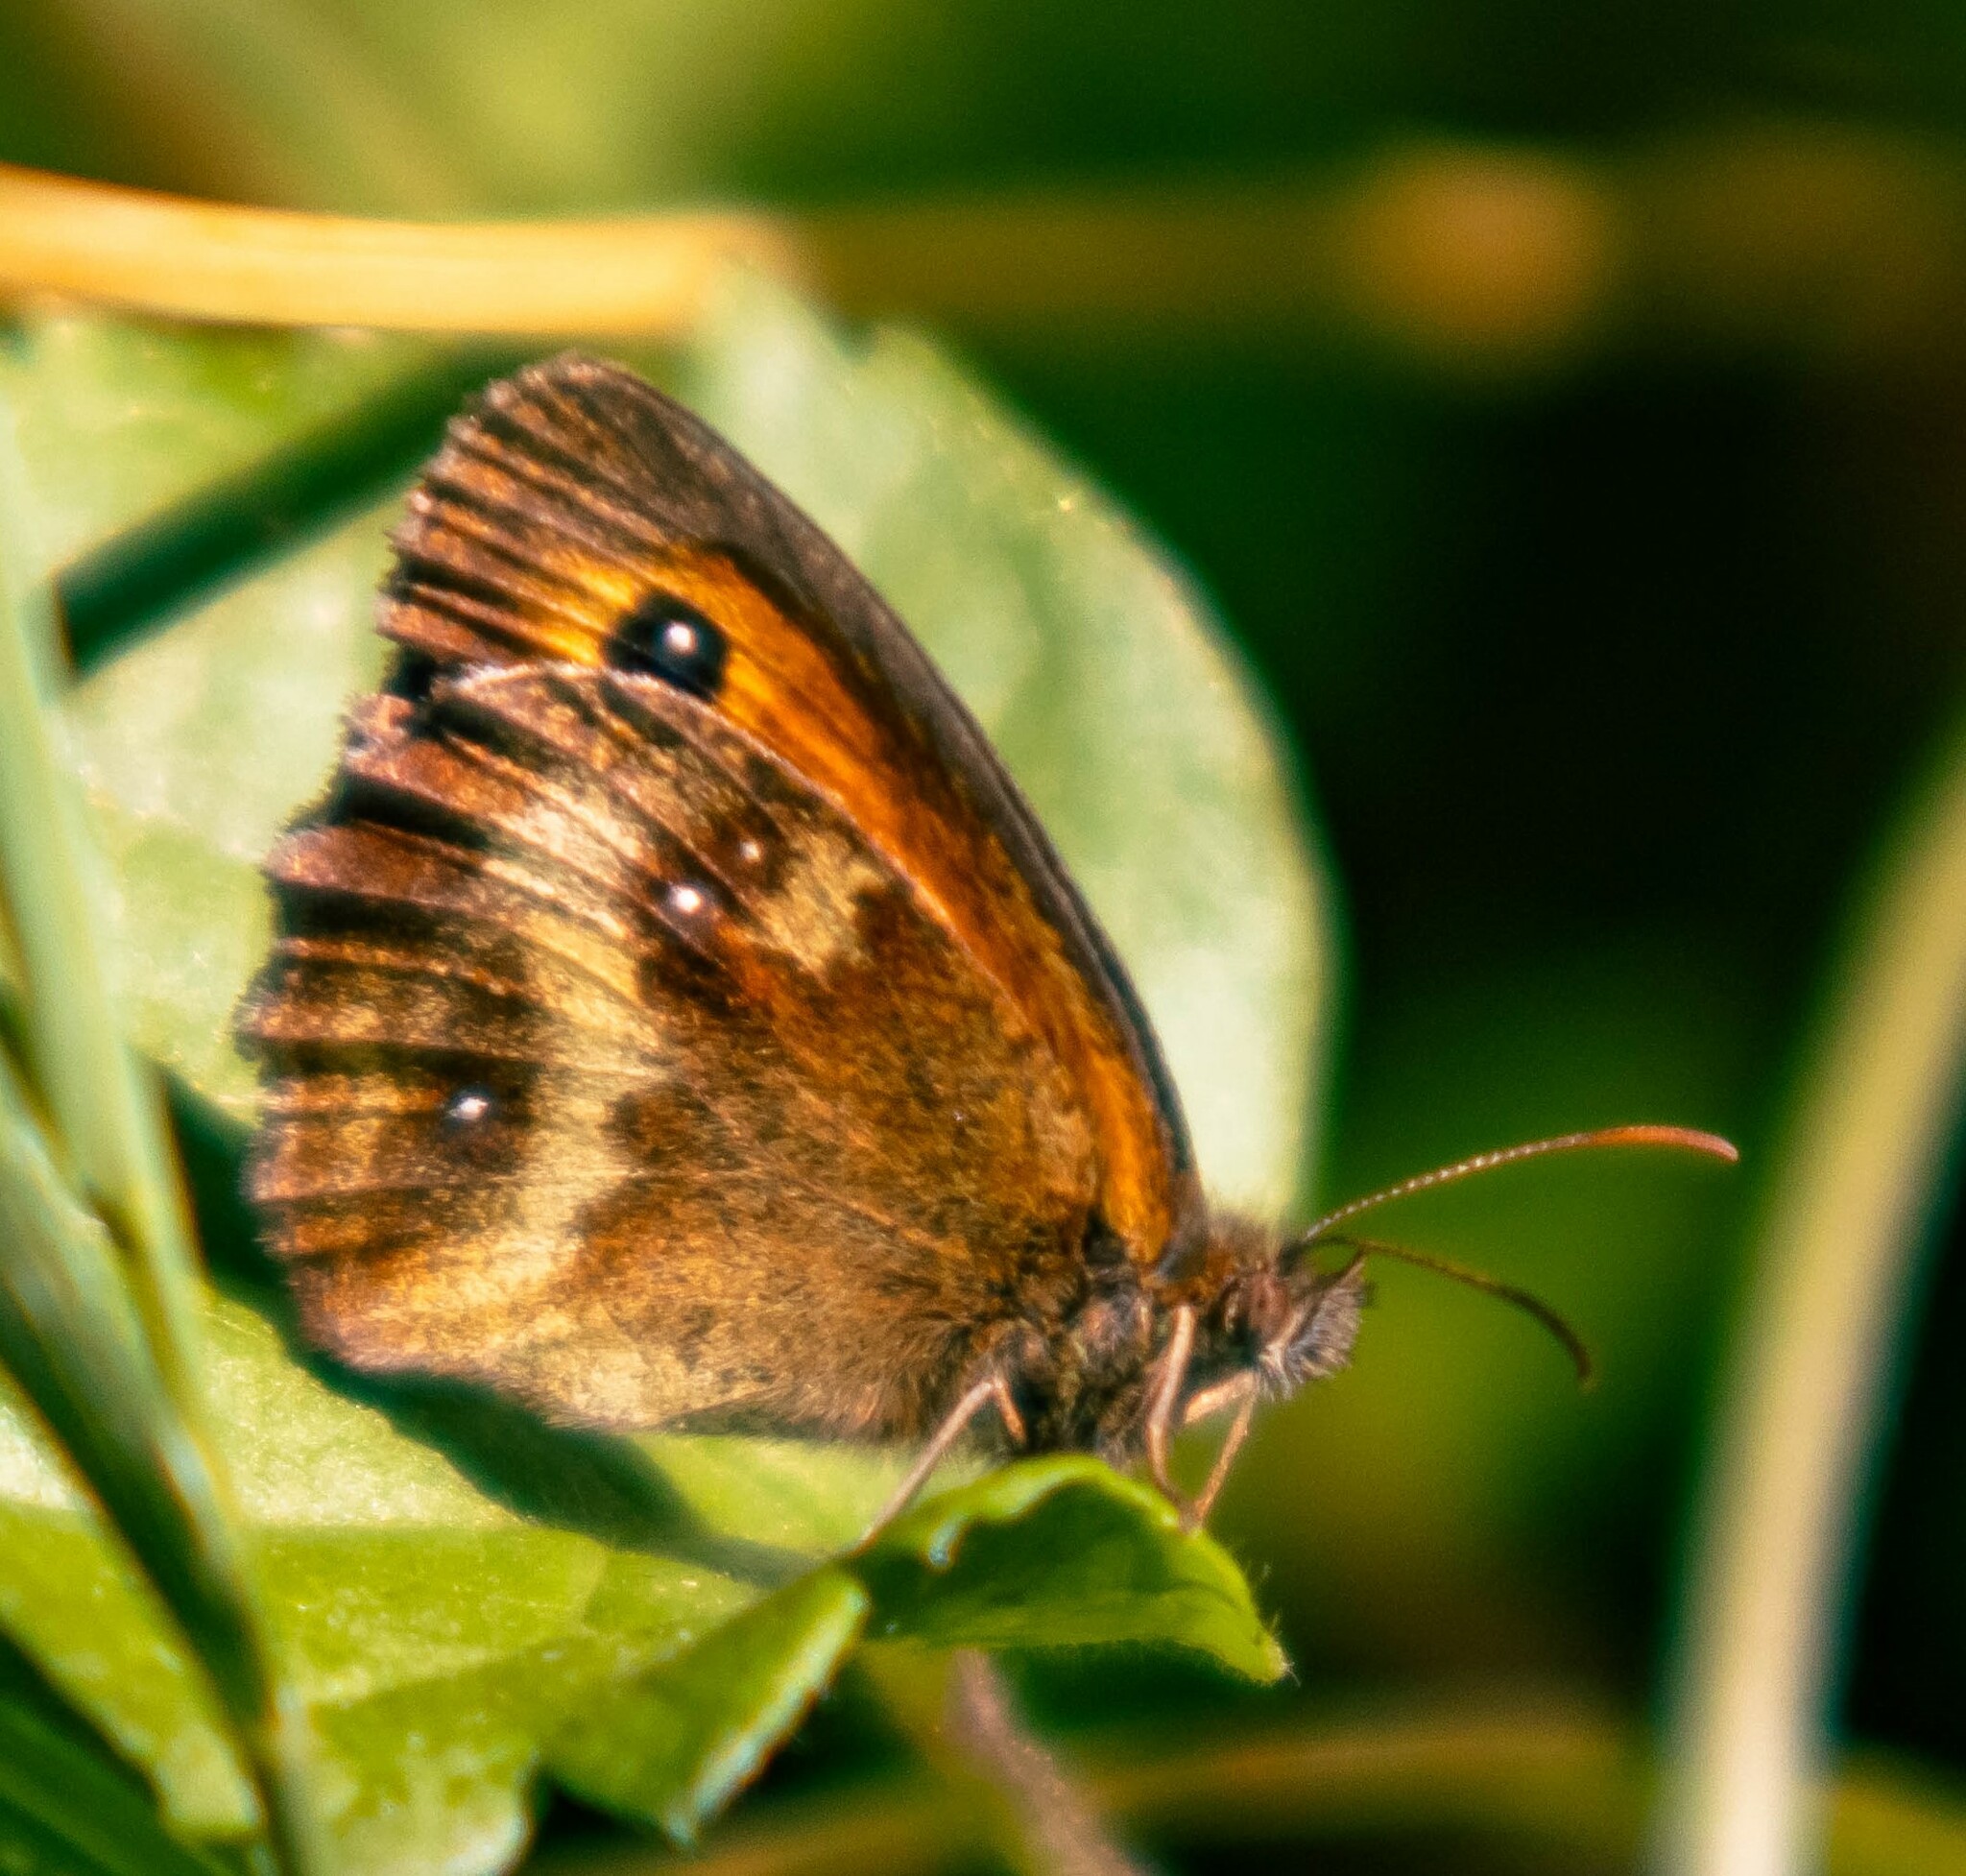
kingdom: Animalia
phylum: Arthropoda
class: Insecta
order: Lepidoptera
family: Nymphalidae
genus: Pyronia
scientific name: Pyronia tithonus
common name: Gatekeeper
